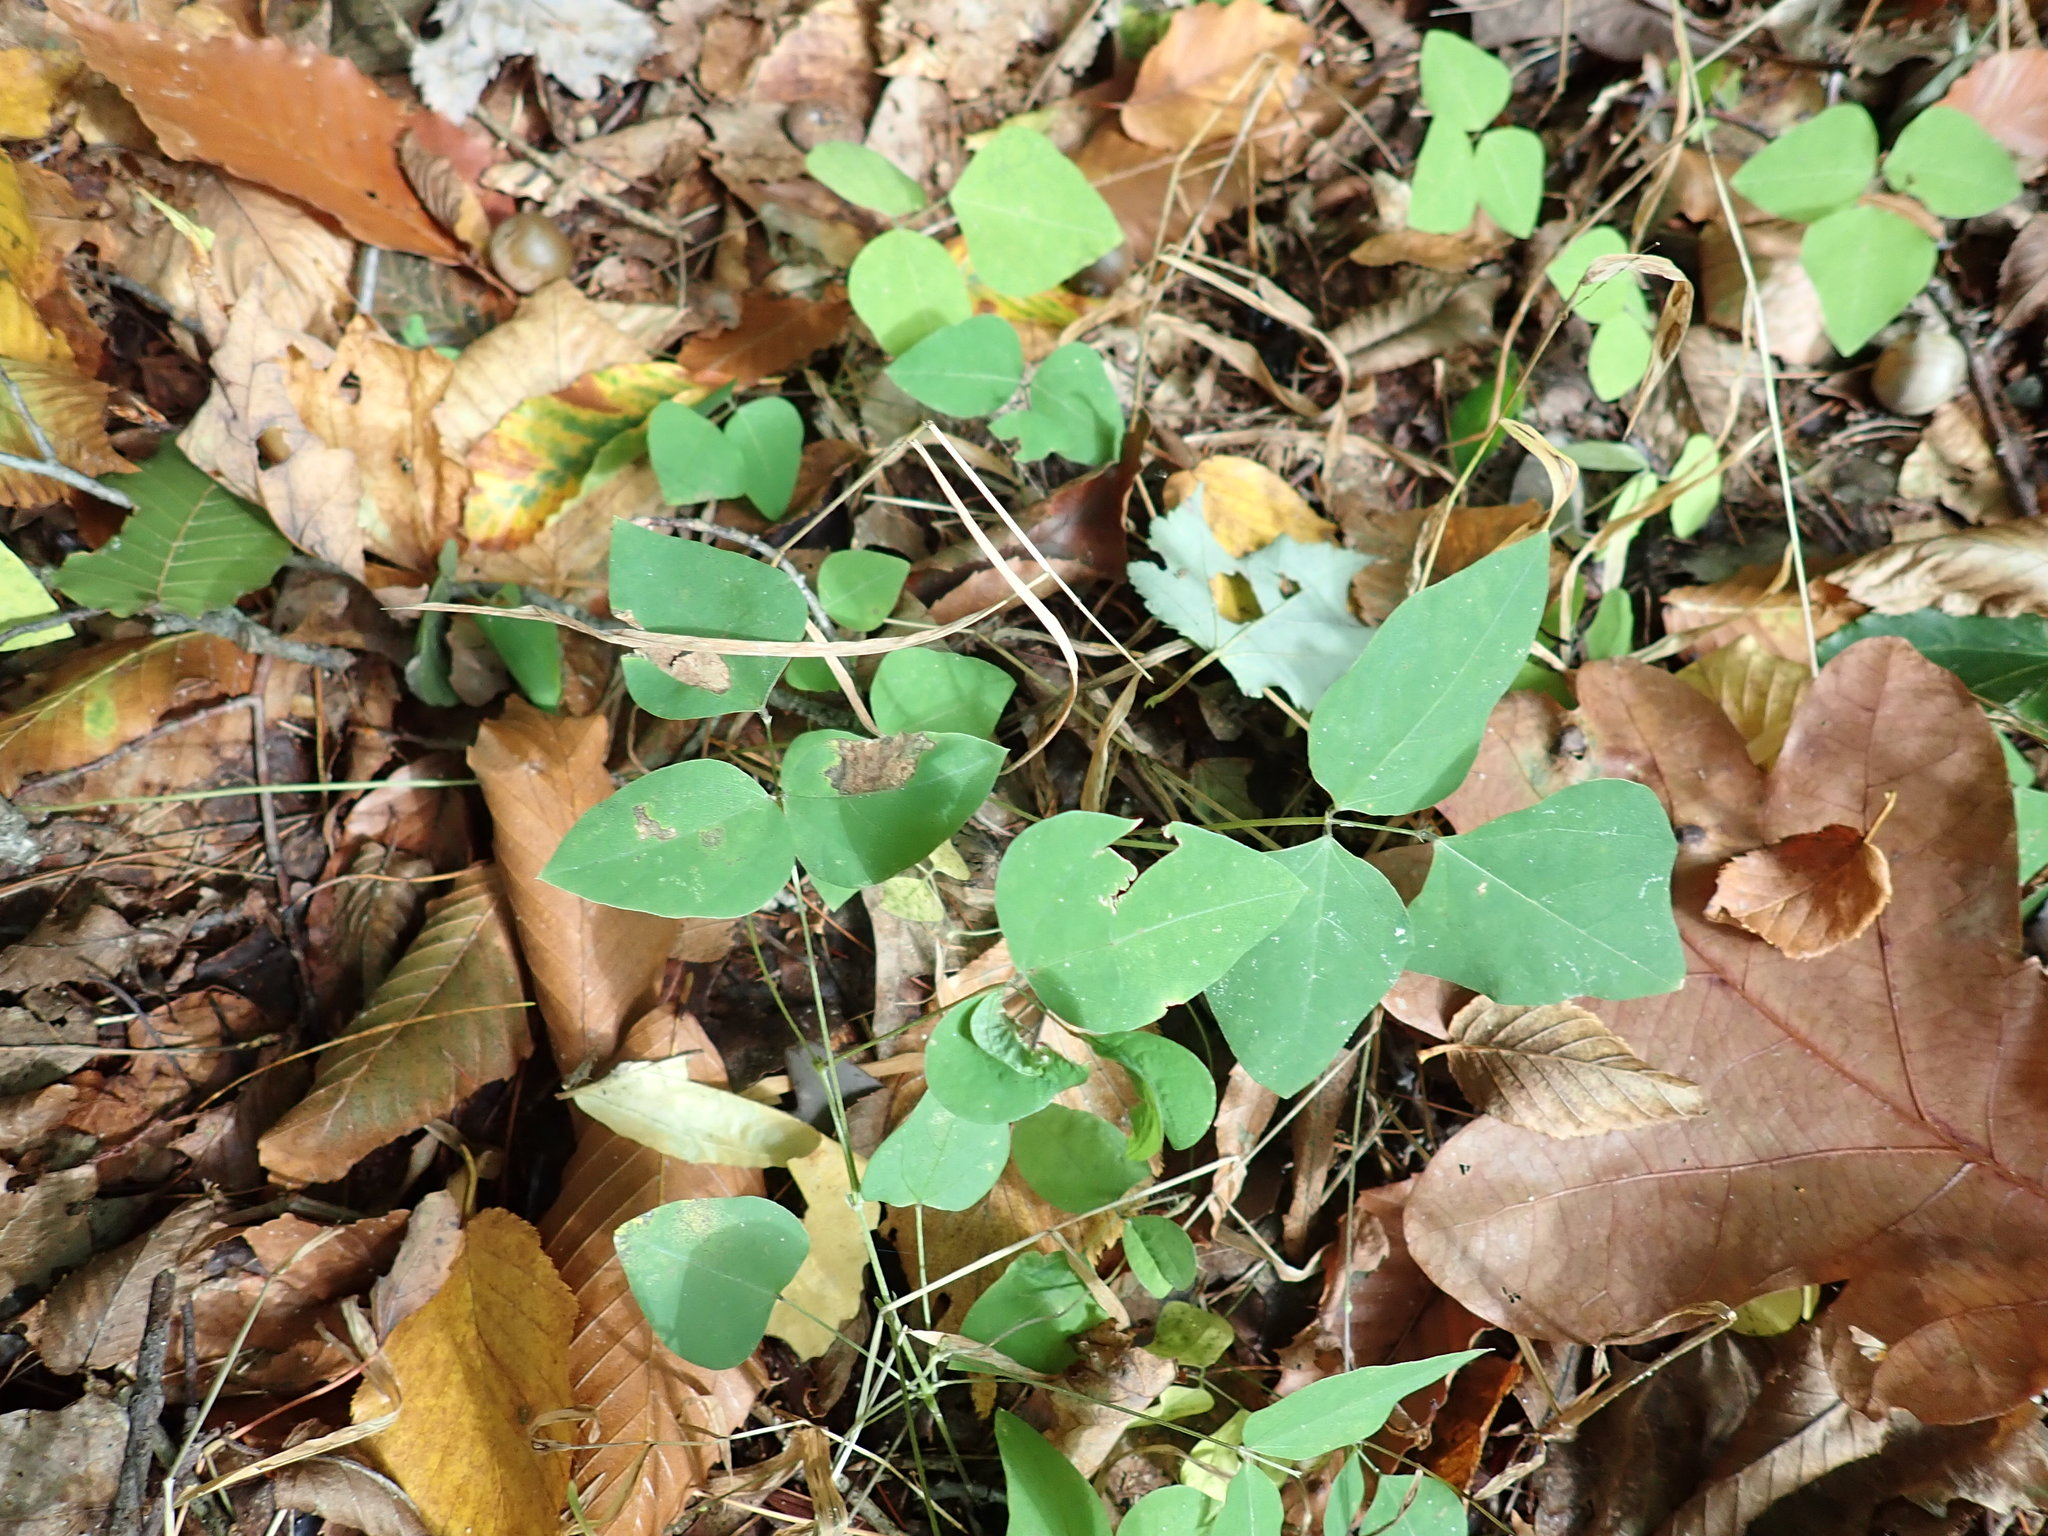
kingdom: Plantae
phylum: Tracheophyta
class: Magnoliopsida
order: Fabales
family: Fabaceae
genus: Amphicarpaea
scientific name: Amphicarpaea bracteata
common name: American hog peanut
